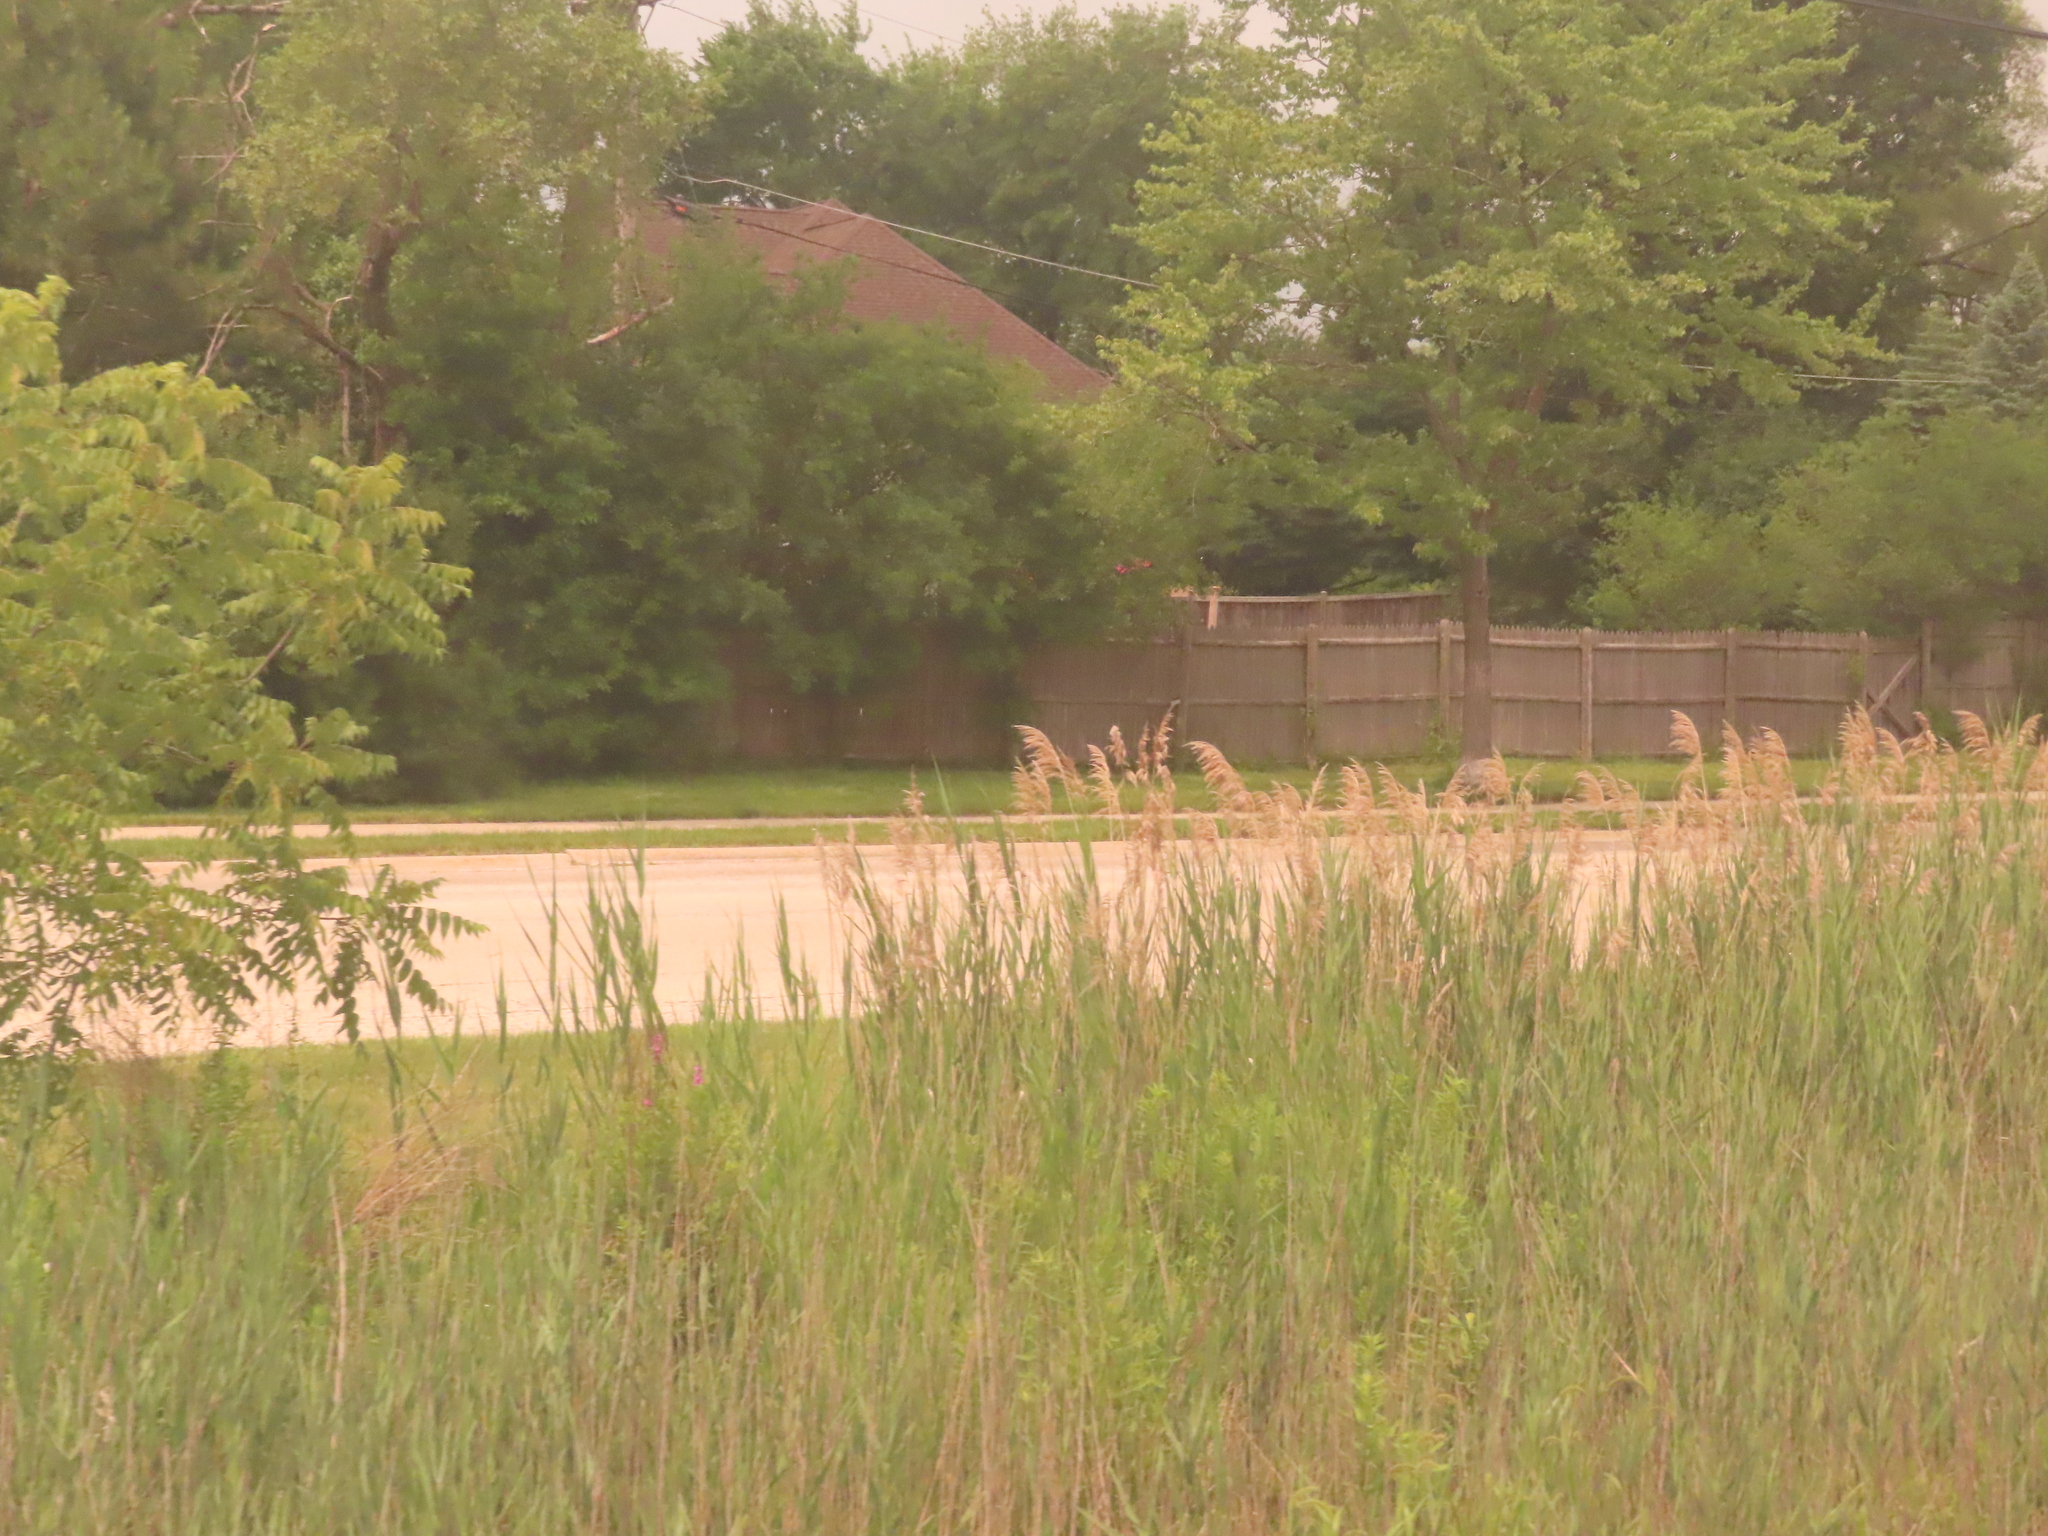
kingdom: Plantae
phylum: Tracheophyta
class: Liliopsida
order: Poales
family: Poaceae
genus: Phragmites
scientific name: Phragmites australis
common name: Common reed
